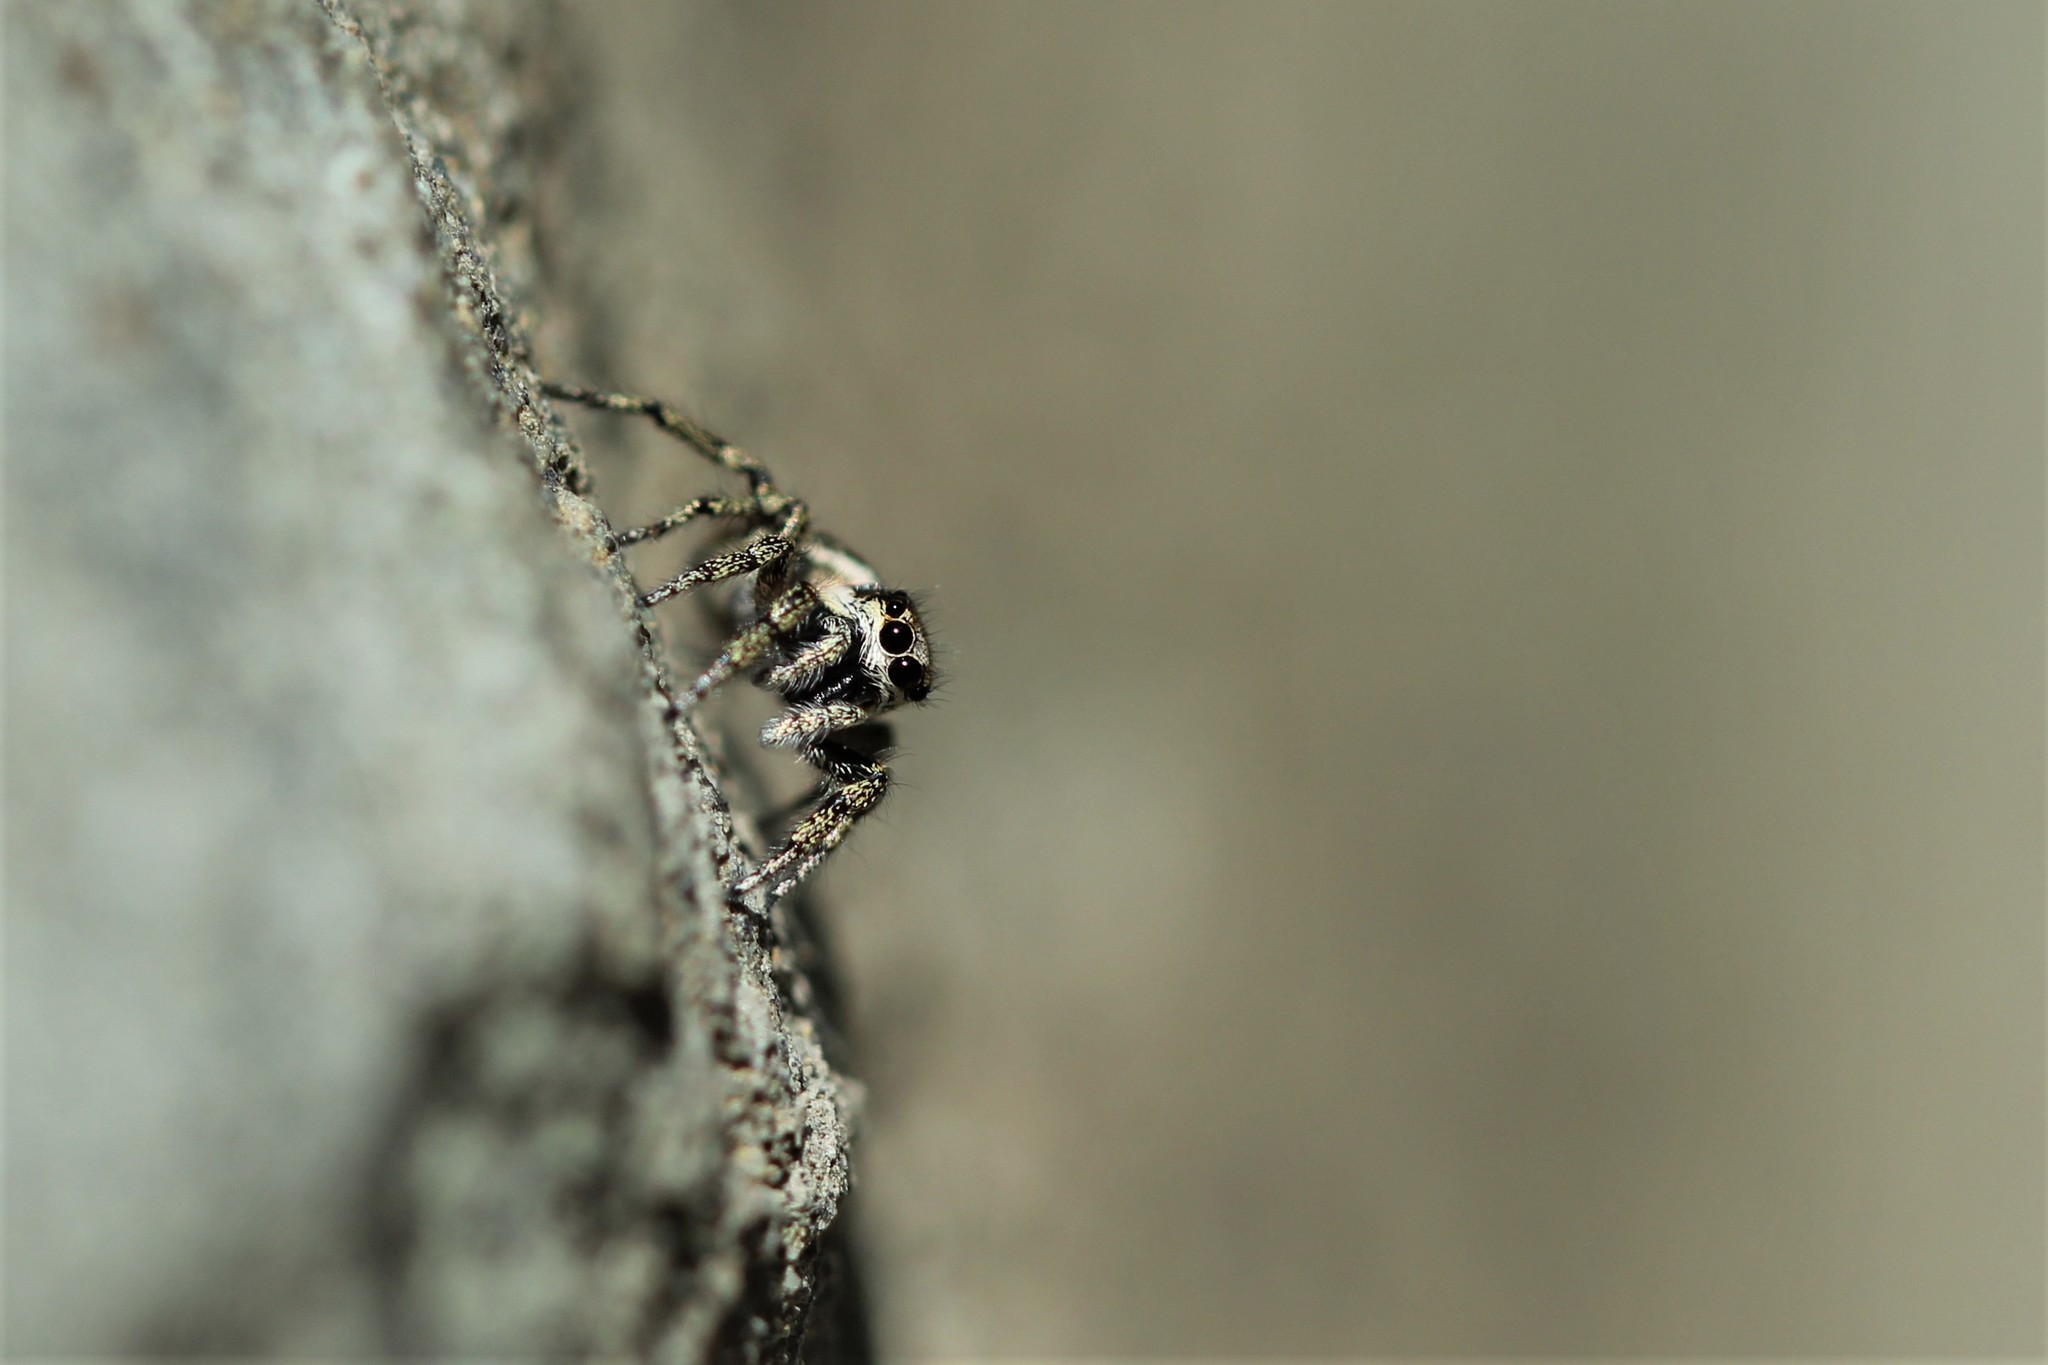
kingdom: Animalia
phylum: Arthropoda
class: Arachnida
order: Araneae
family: Salticidae
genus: Salticus
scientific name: Salticus scenicus
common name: Zebra jumper
